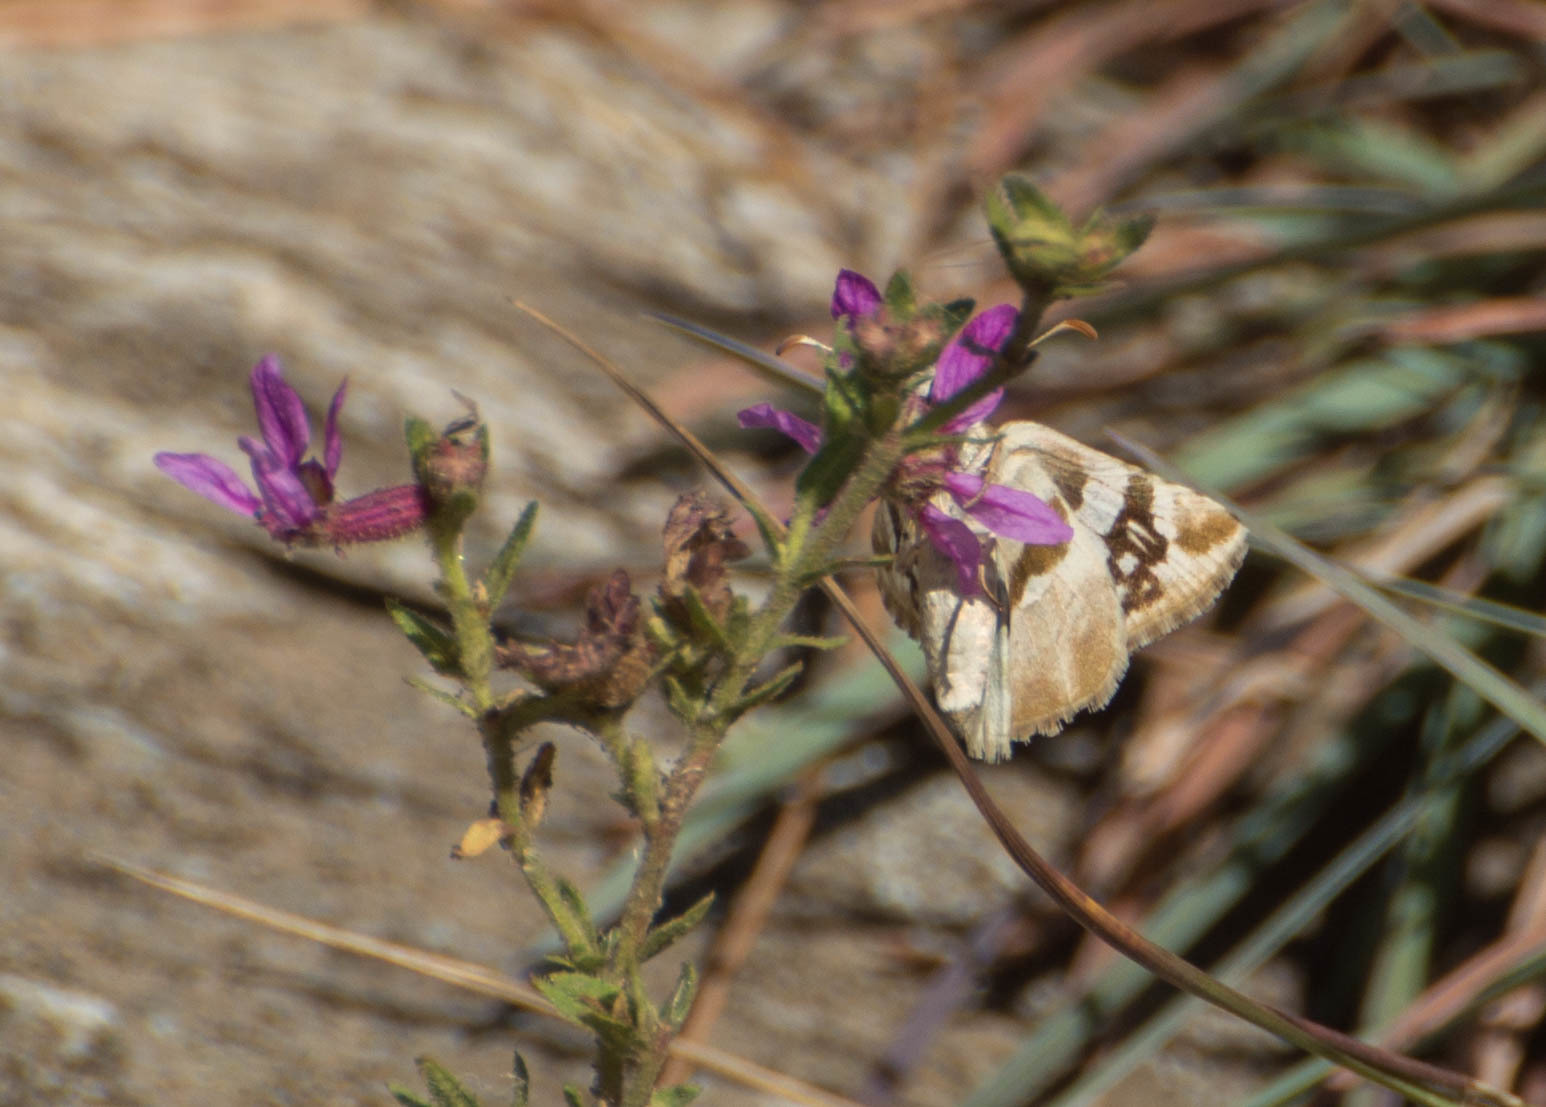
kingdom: Animalia
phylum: Arthropoda
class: Insecta
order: Lepidoptera
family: Hesperiidae
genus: Heliopyrgus
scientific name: Heliopyrgus domicella
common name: Erichson's white skipper
